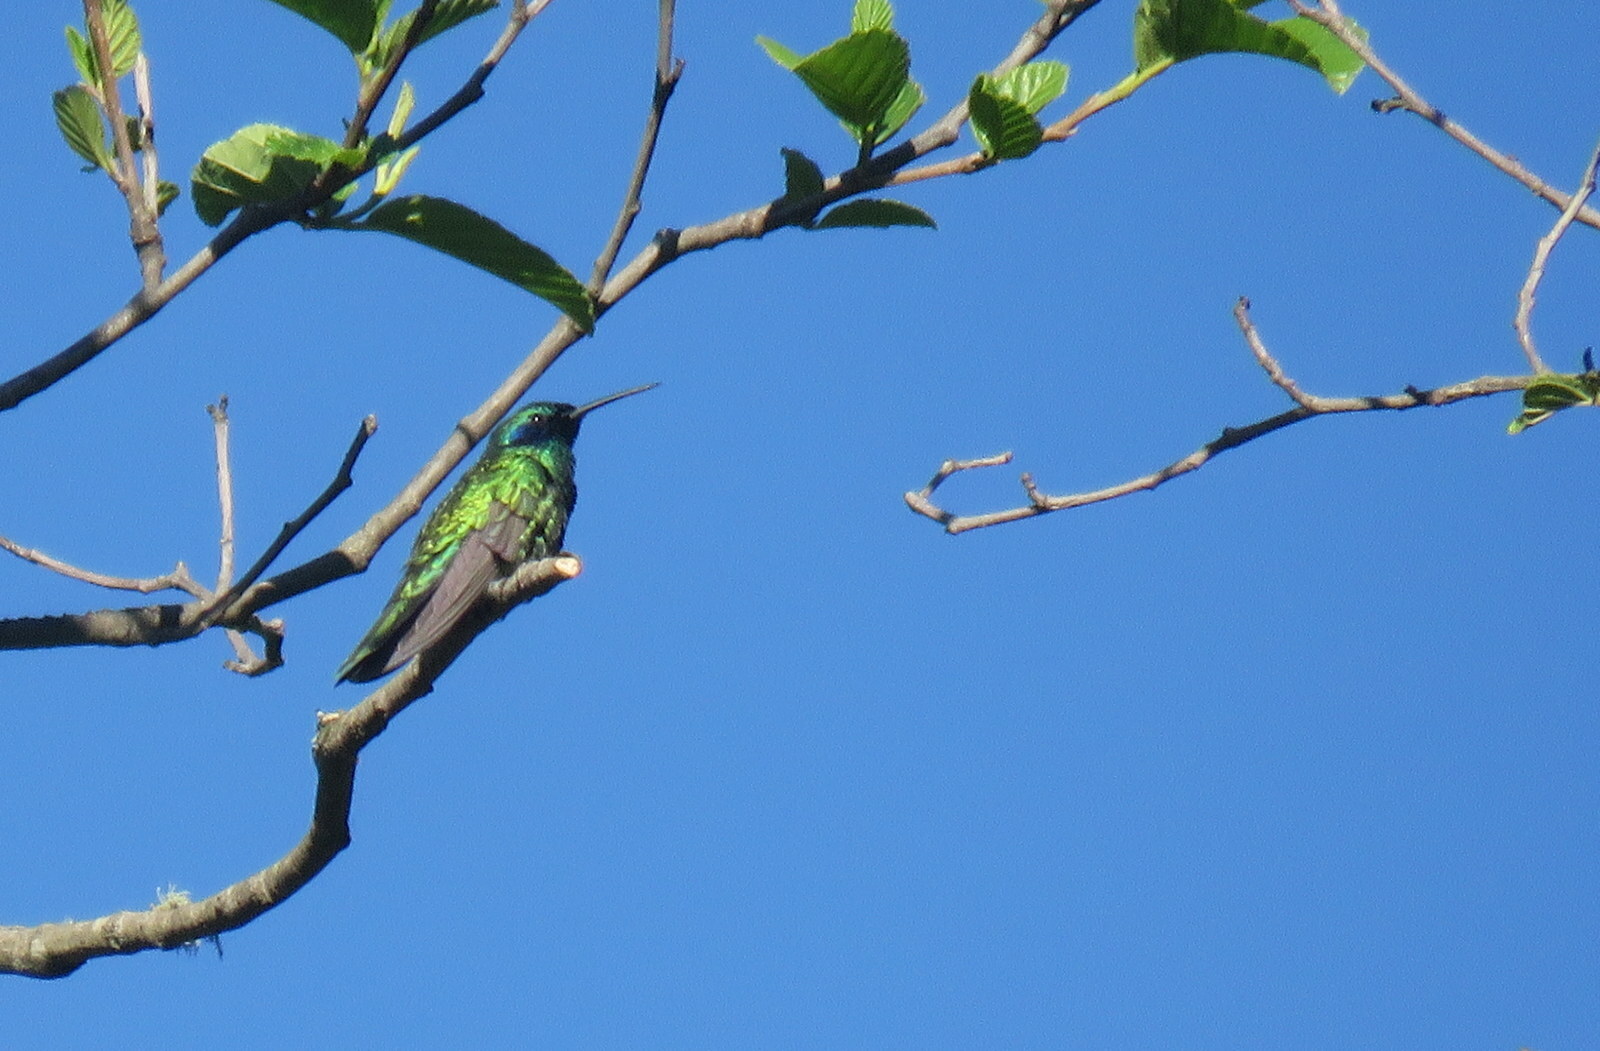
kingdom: Animalia
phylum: Chordata
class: Aves
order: Apodiformes
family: Trochilidae
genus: Colibri
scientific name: Colibri coruscans
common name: Sparkling violetear
